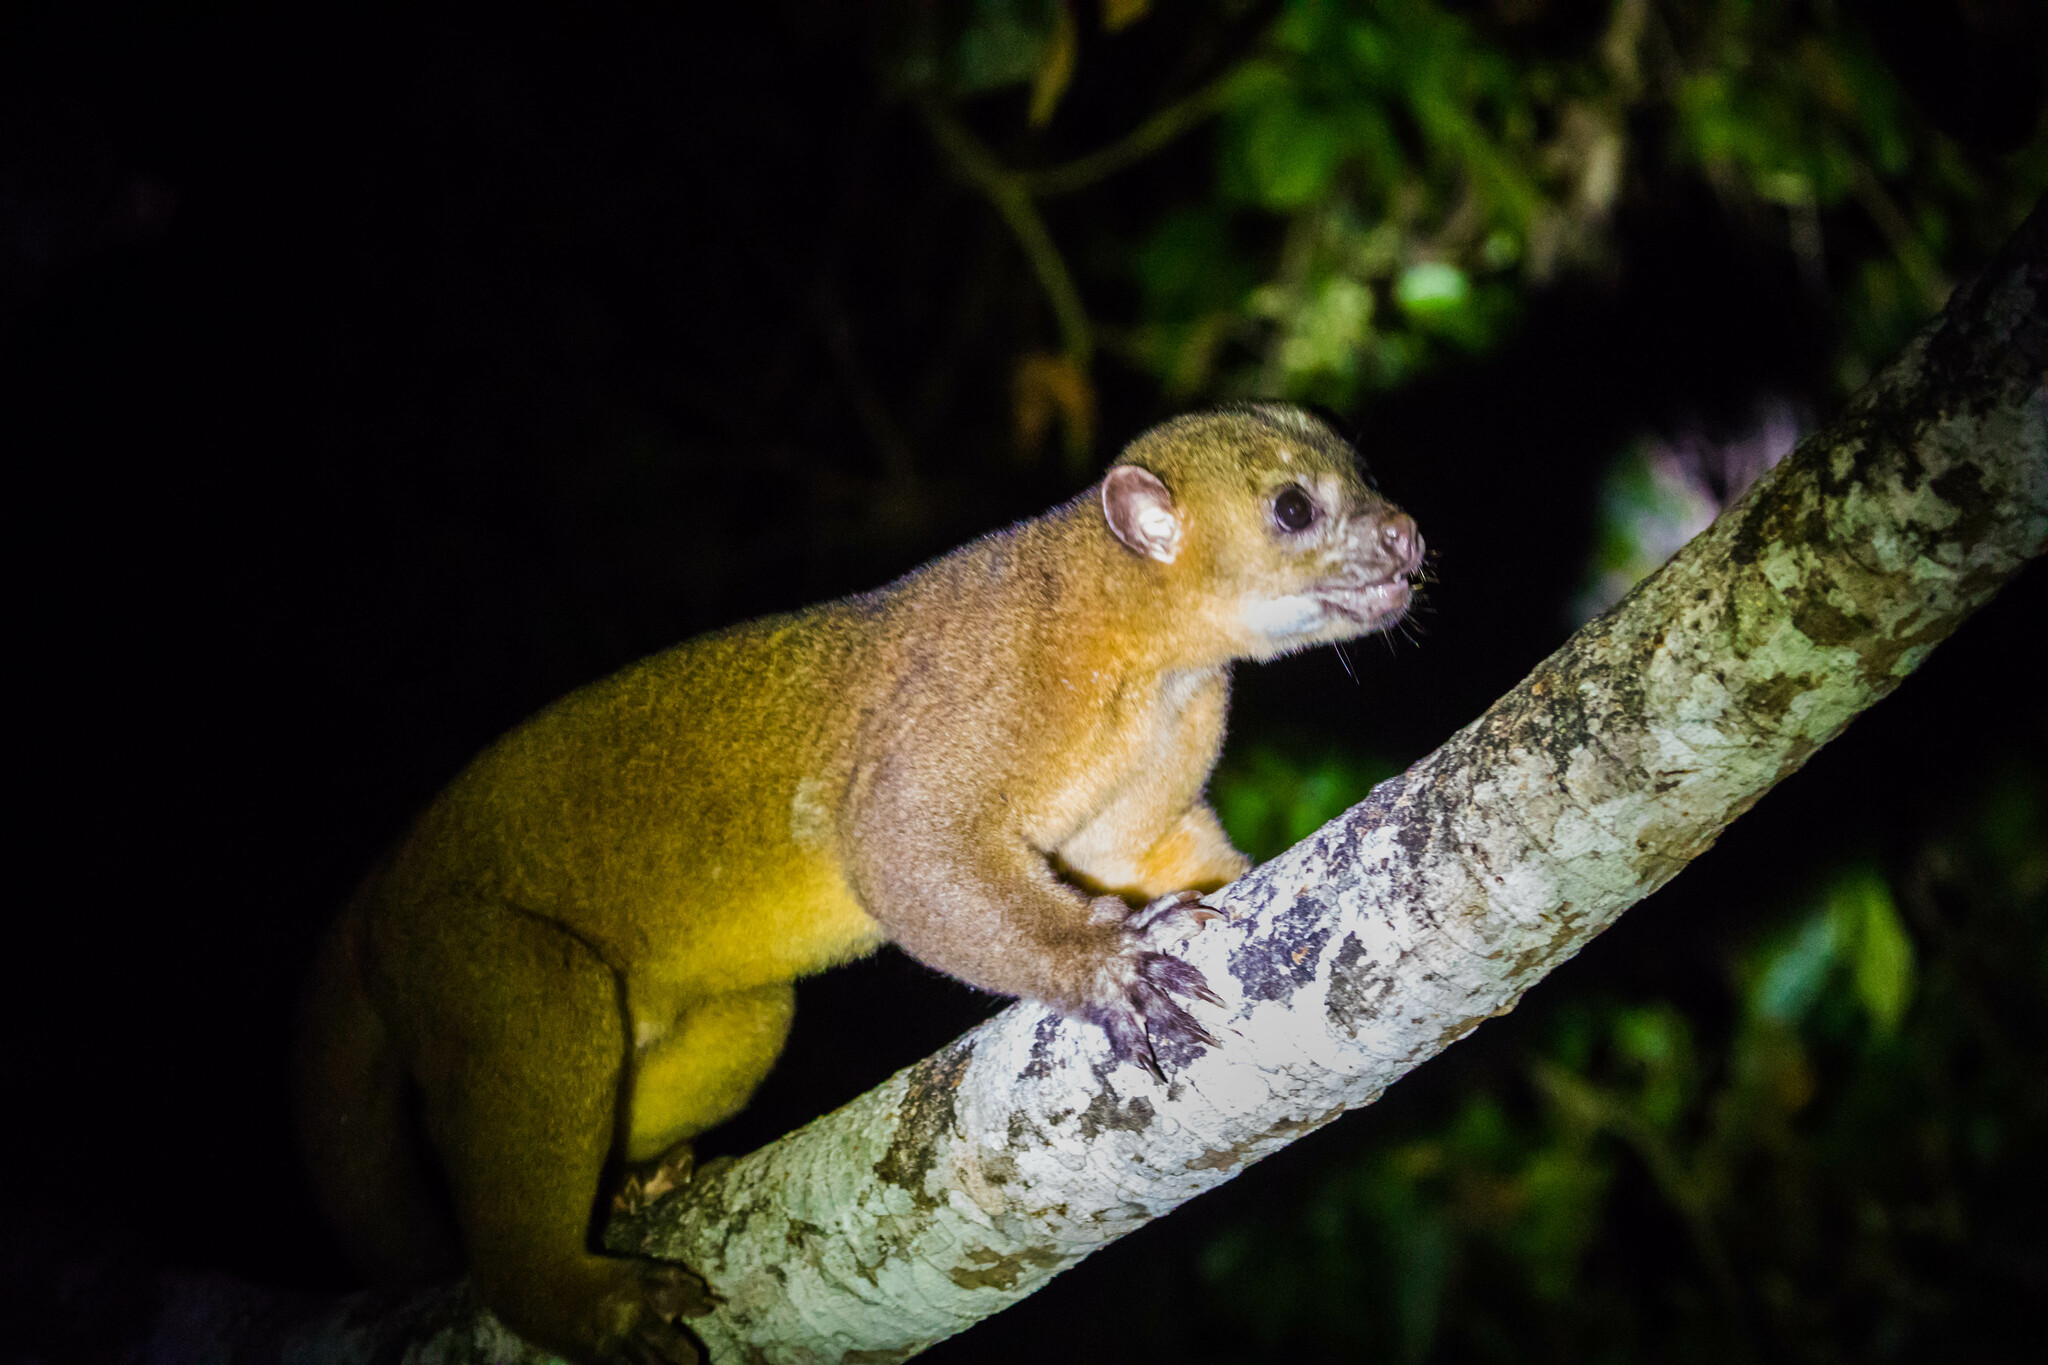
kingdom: Animalia
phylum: Chordata
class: Mammalia
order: Carnivora
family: Procyonidae
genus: Potos
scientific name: Potos flavus
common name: Kinkajou
